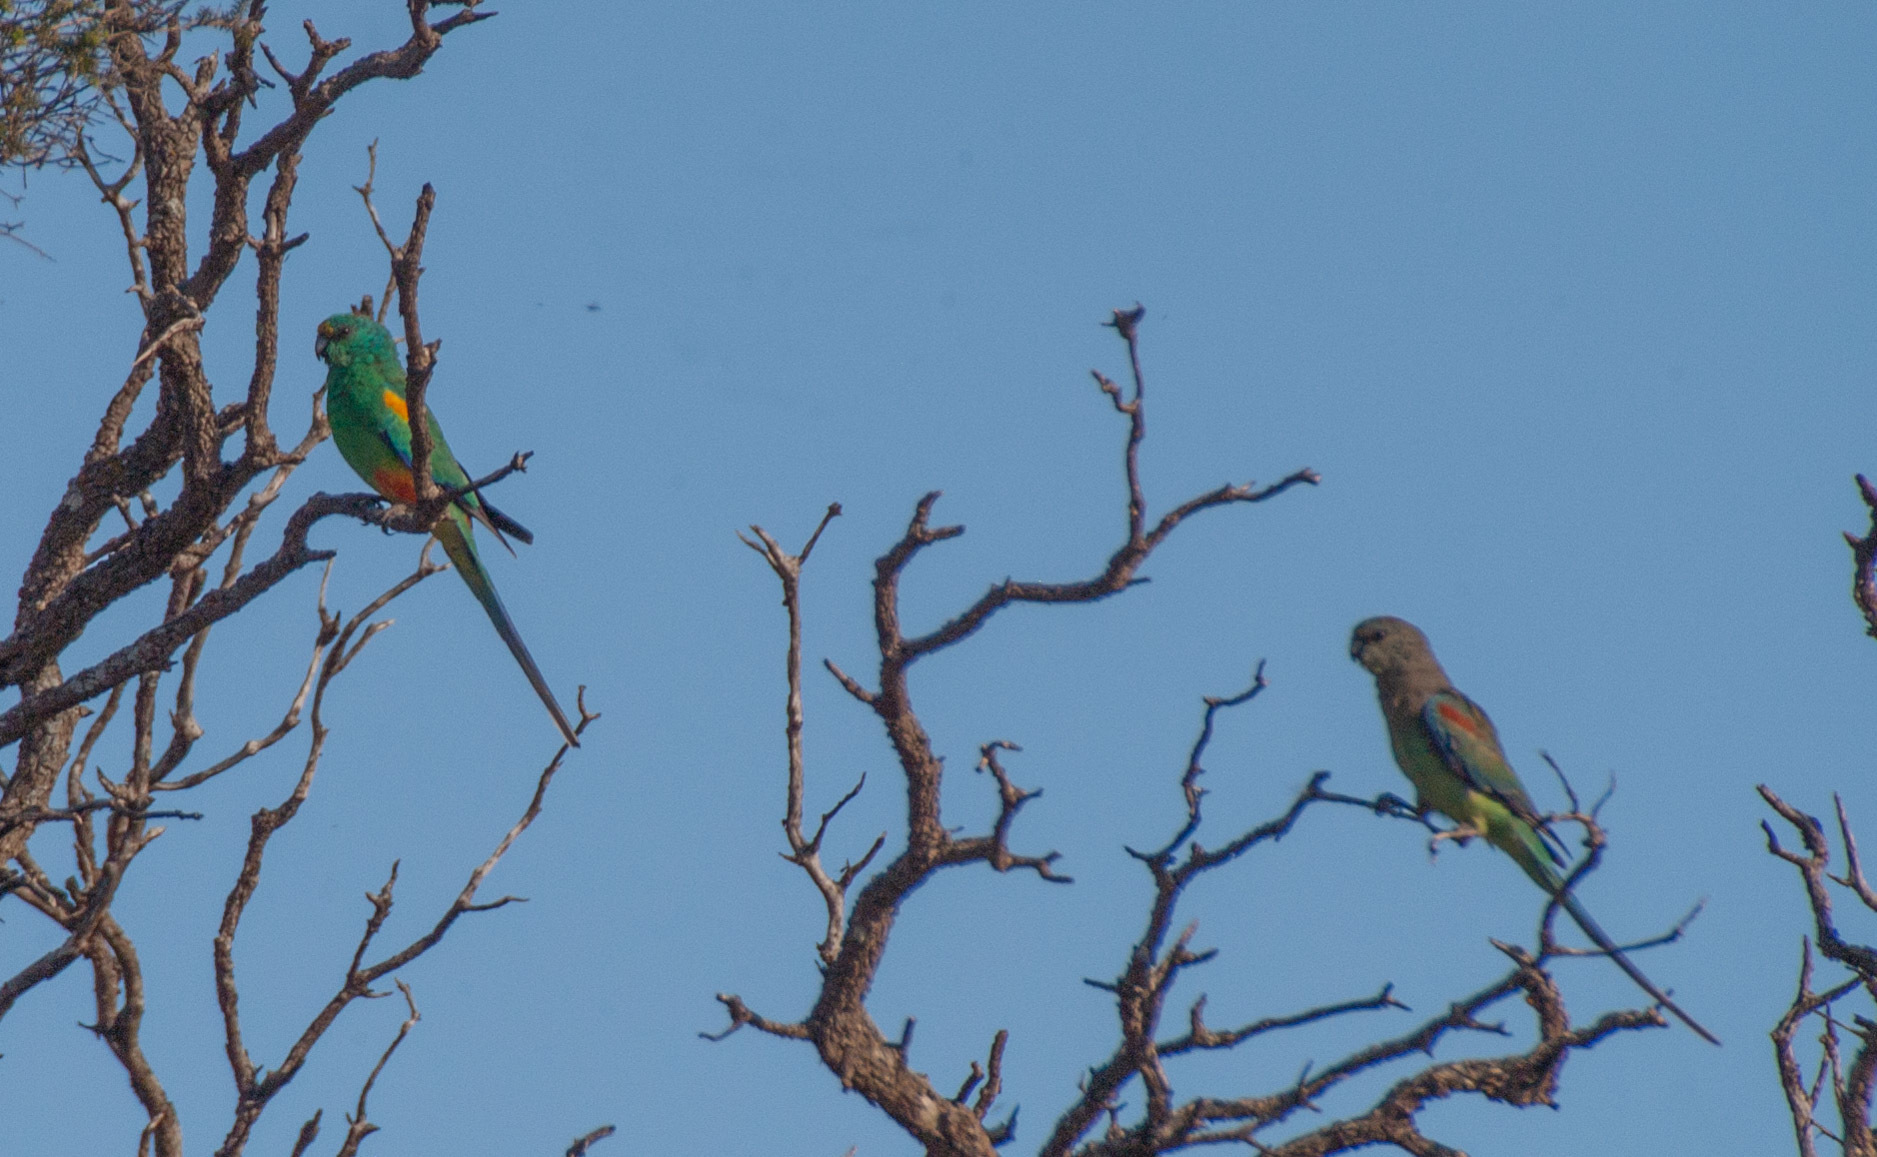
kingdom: Animalia
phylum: Chordata
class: Aves
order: Psittaciformes
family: Psittaculidae
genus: Psephotellus
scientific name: Psephotellus varius
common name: Mulga parrot
